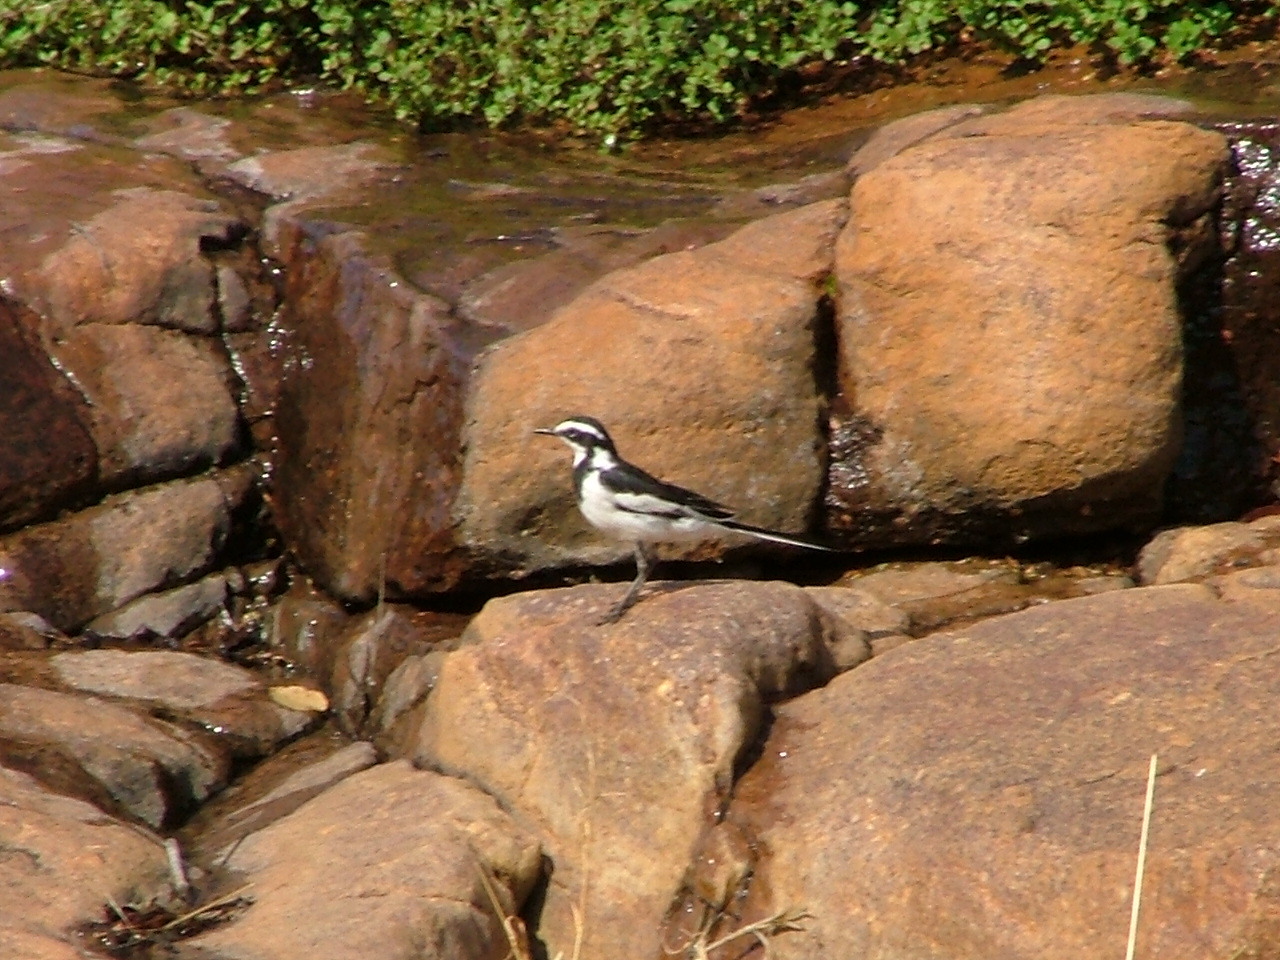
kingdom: Animalia
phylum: Chordata
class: Aves
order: Passeriformes
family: Motacillidae
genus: Motacilla
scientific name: Motacilla aguimp
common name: African pied wagtail
